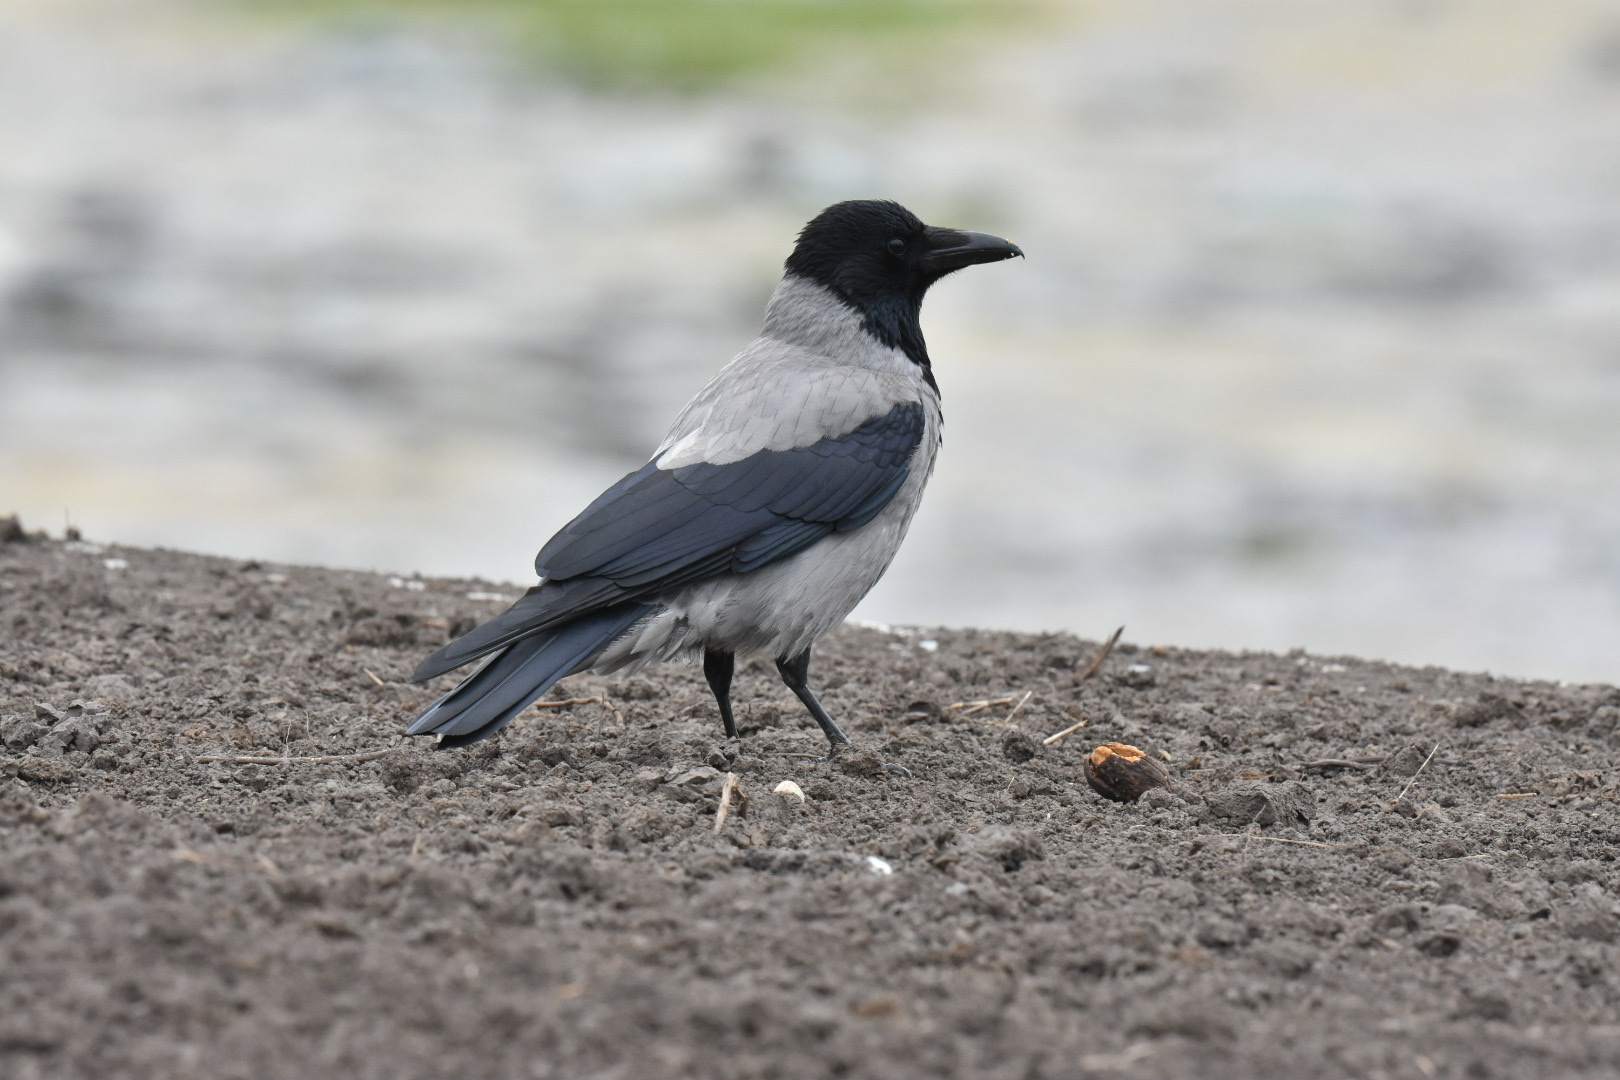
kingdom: Animalia
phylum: Chordata
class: Aves
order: Passeriformes
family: Corvidae
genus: Corvus
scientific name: Corvus cornix
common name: Hooded crow
